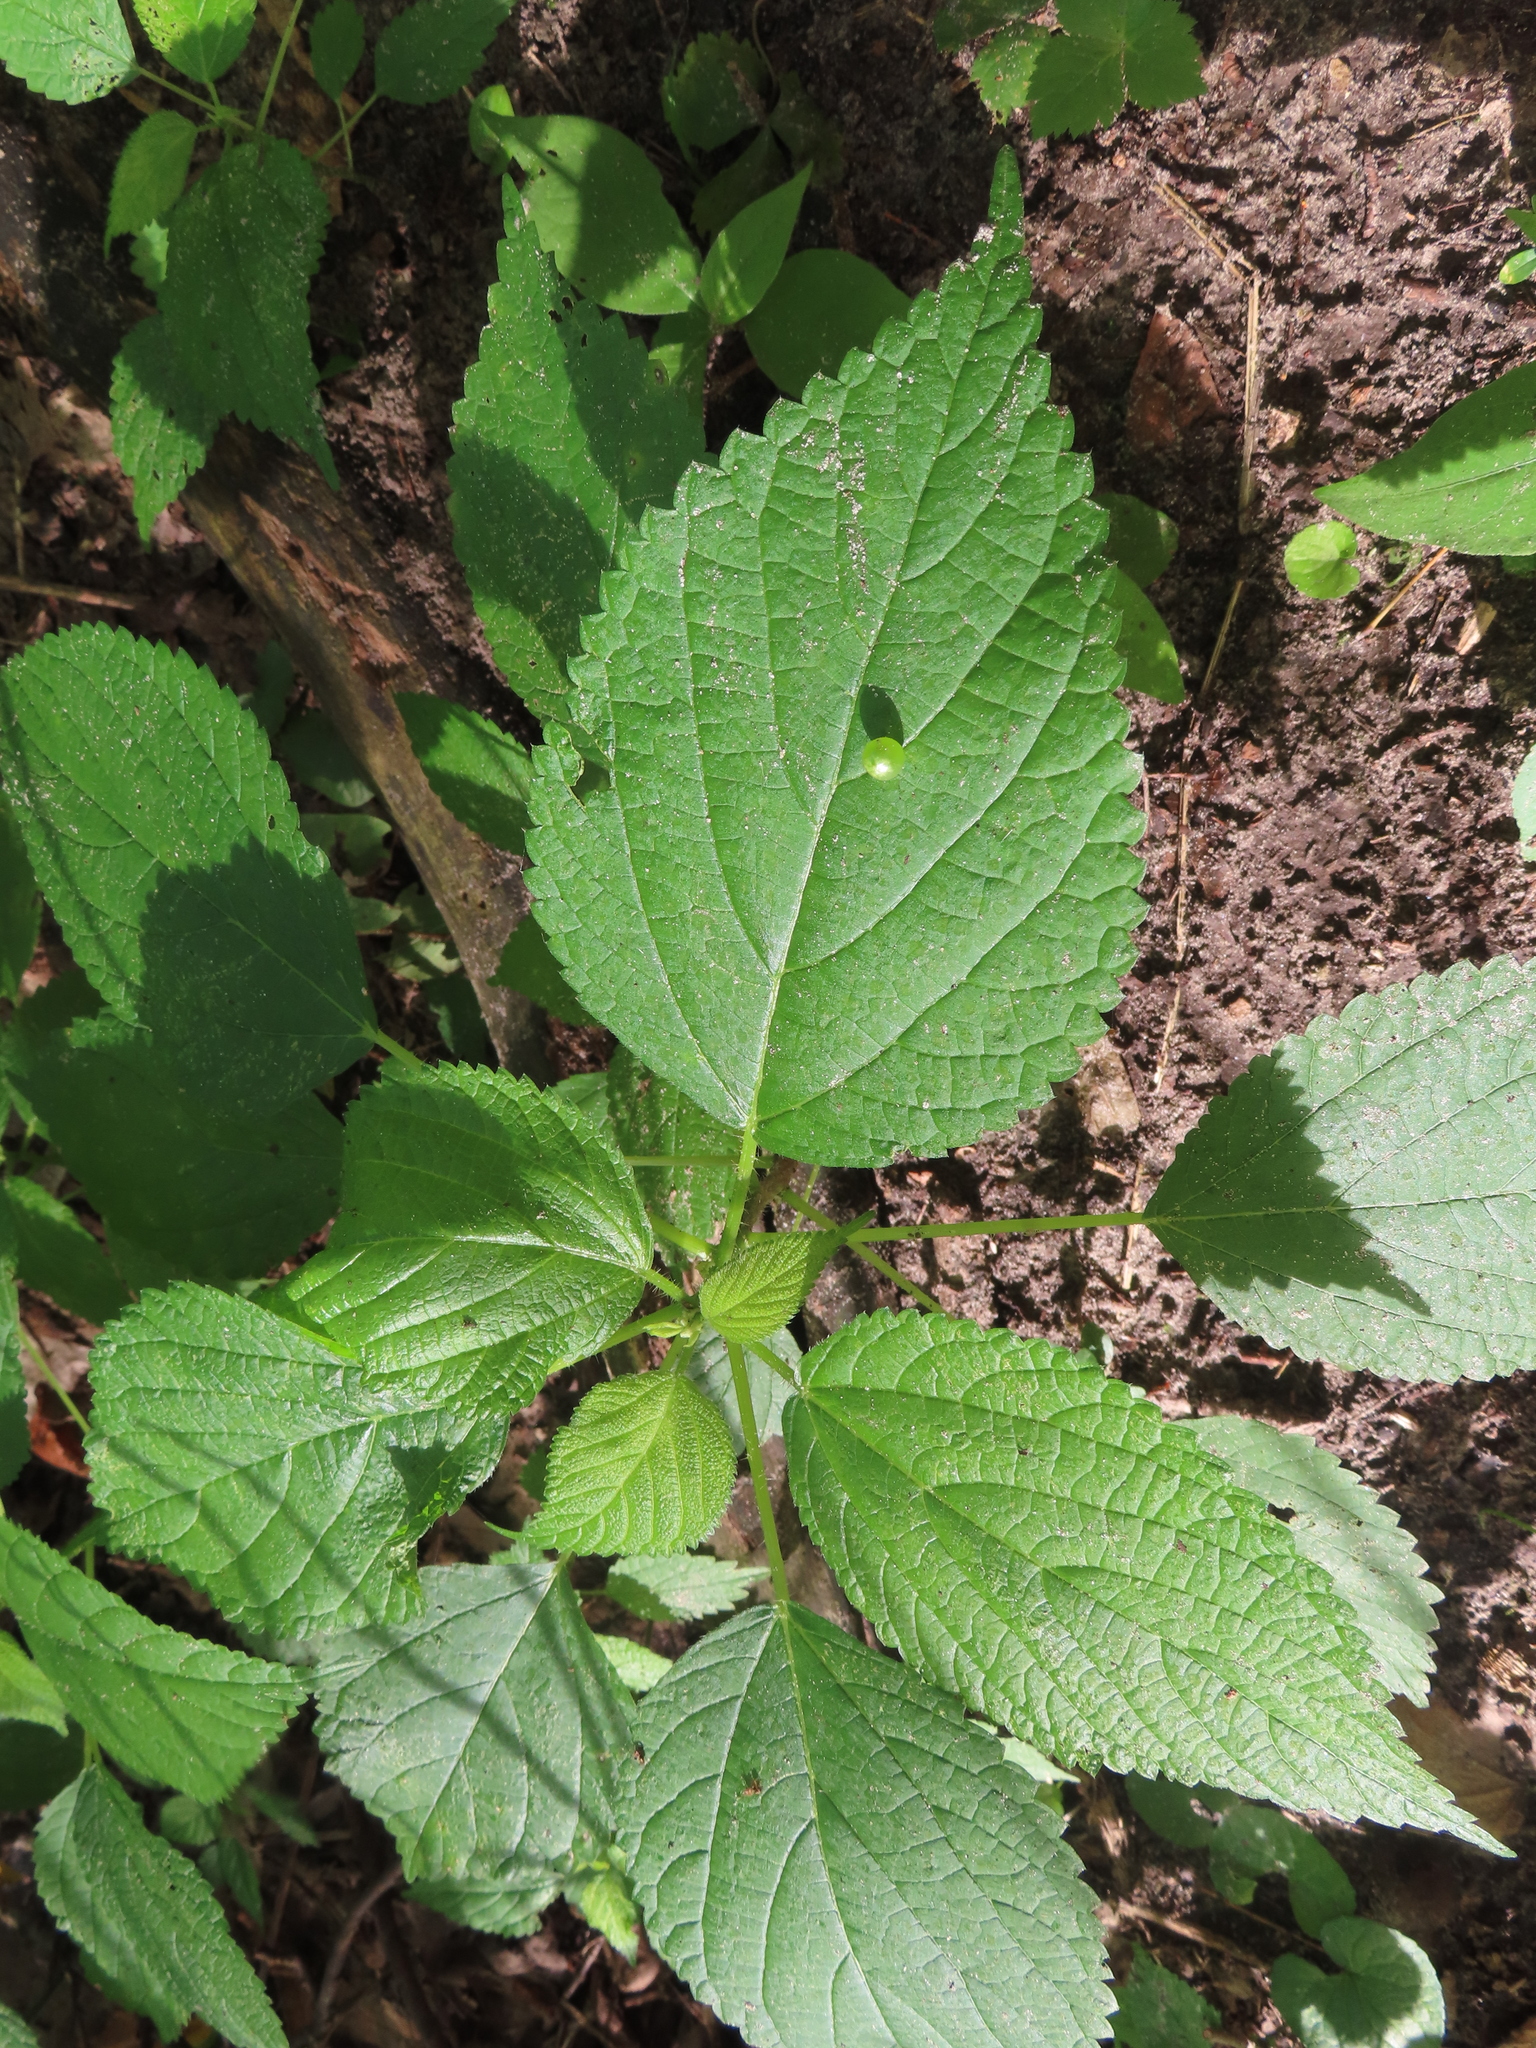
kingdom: Animalia
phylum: Arthropoda
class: Insecta
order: Diptera
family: Cecidomyiidae
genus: Dasineura
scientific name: Dasineura investita
